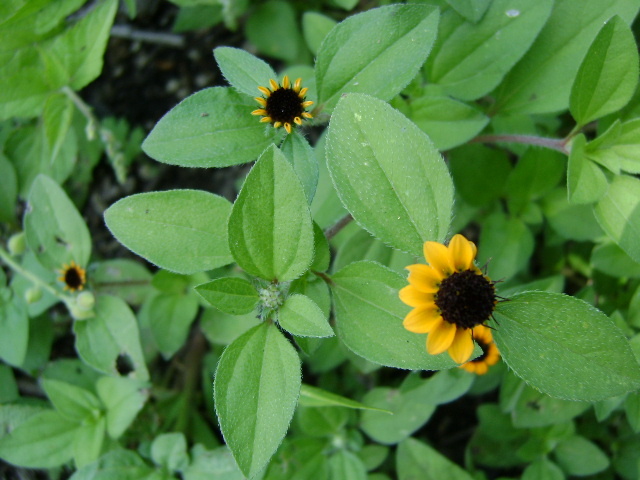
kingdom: Plantae
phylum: Tracheophyta
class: Magnoliopsida
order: Asterales
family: Asteraceae
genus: Sanvitalia
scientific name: Sanvitalia procumbens
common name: Mexican creeping zinnia
